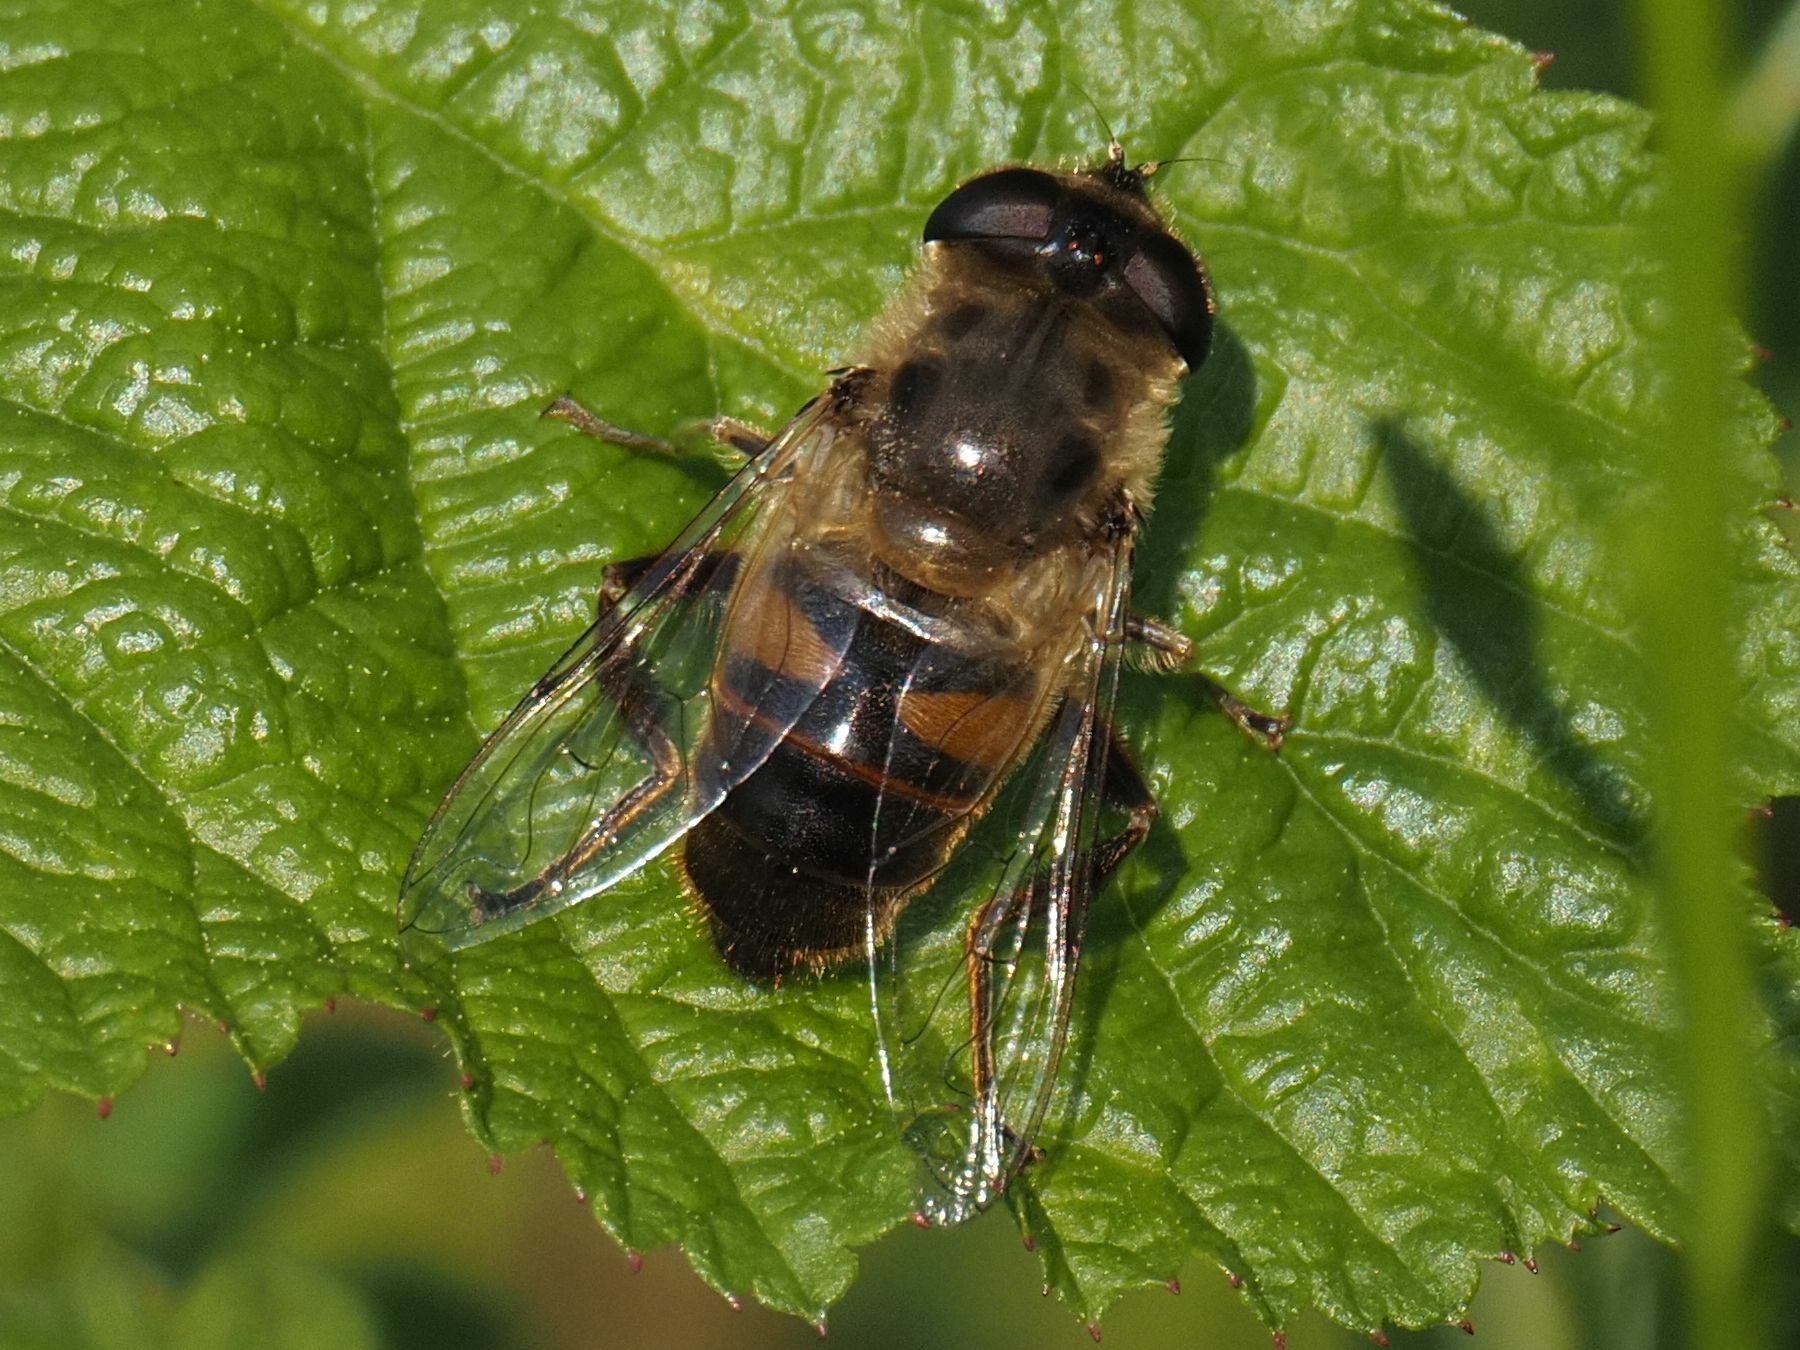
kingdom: Animalia
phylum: Arthropoda
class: Insecta
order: Diptera
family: Syrphidae
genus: Eristalis
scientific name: Eristalis tenax
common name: Drone fly
